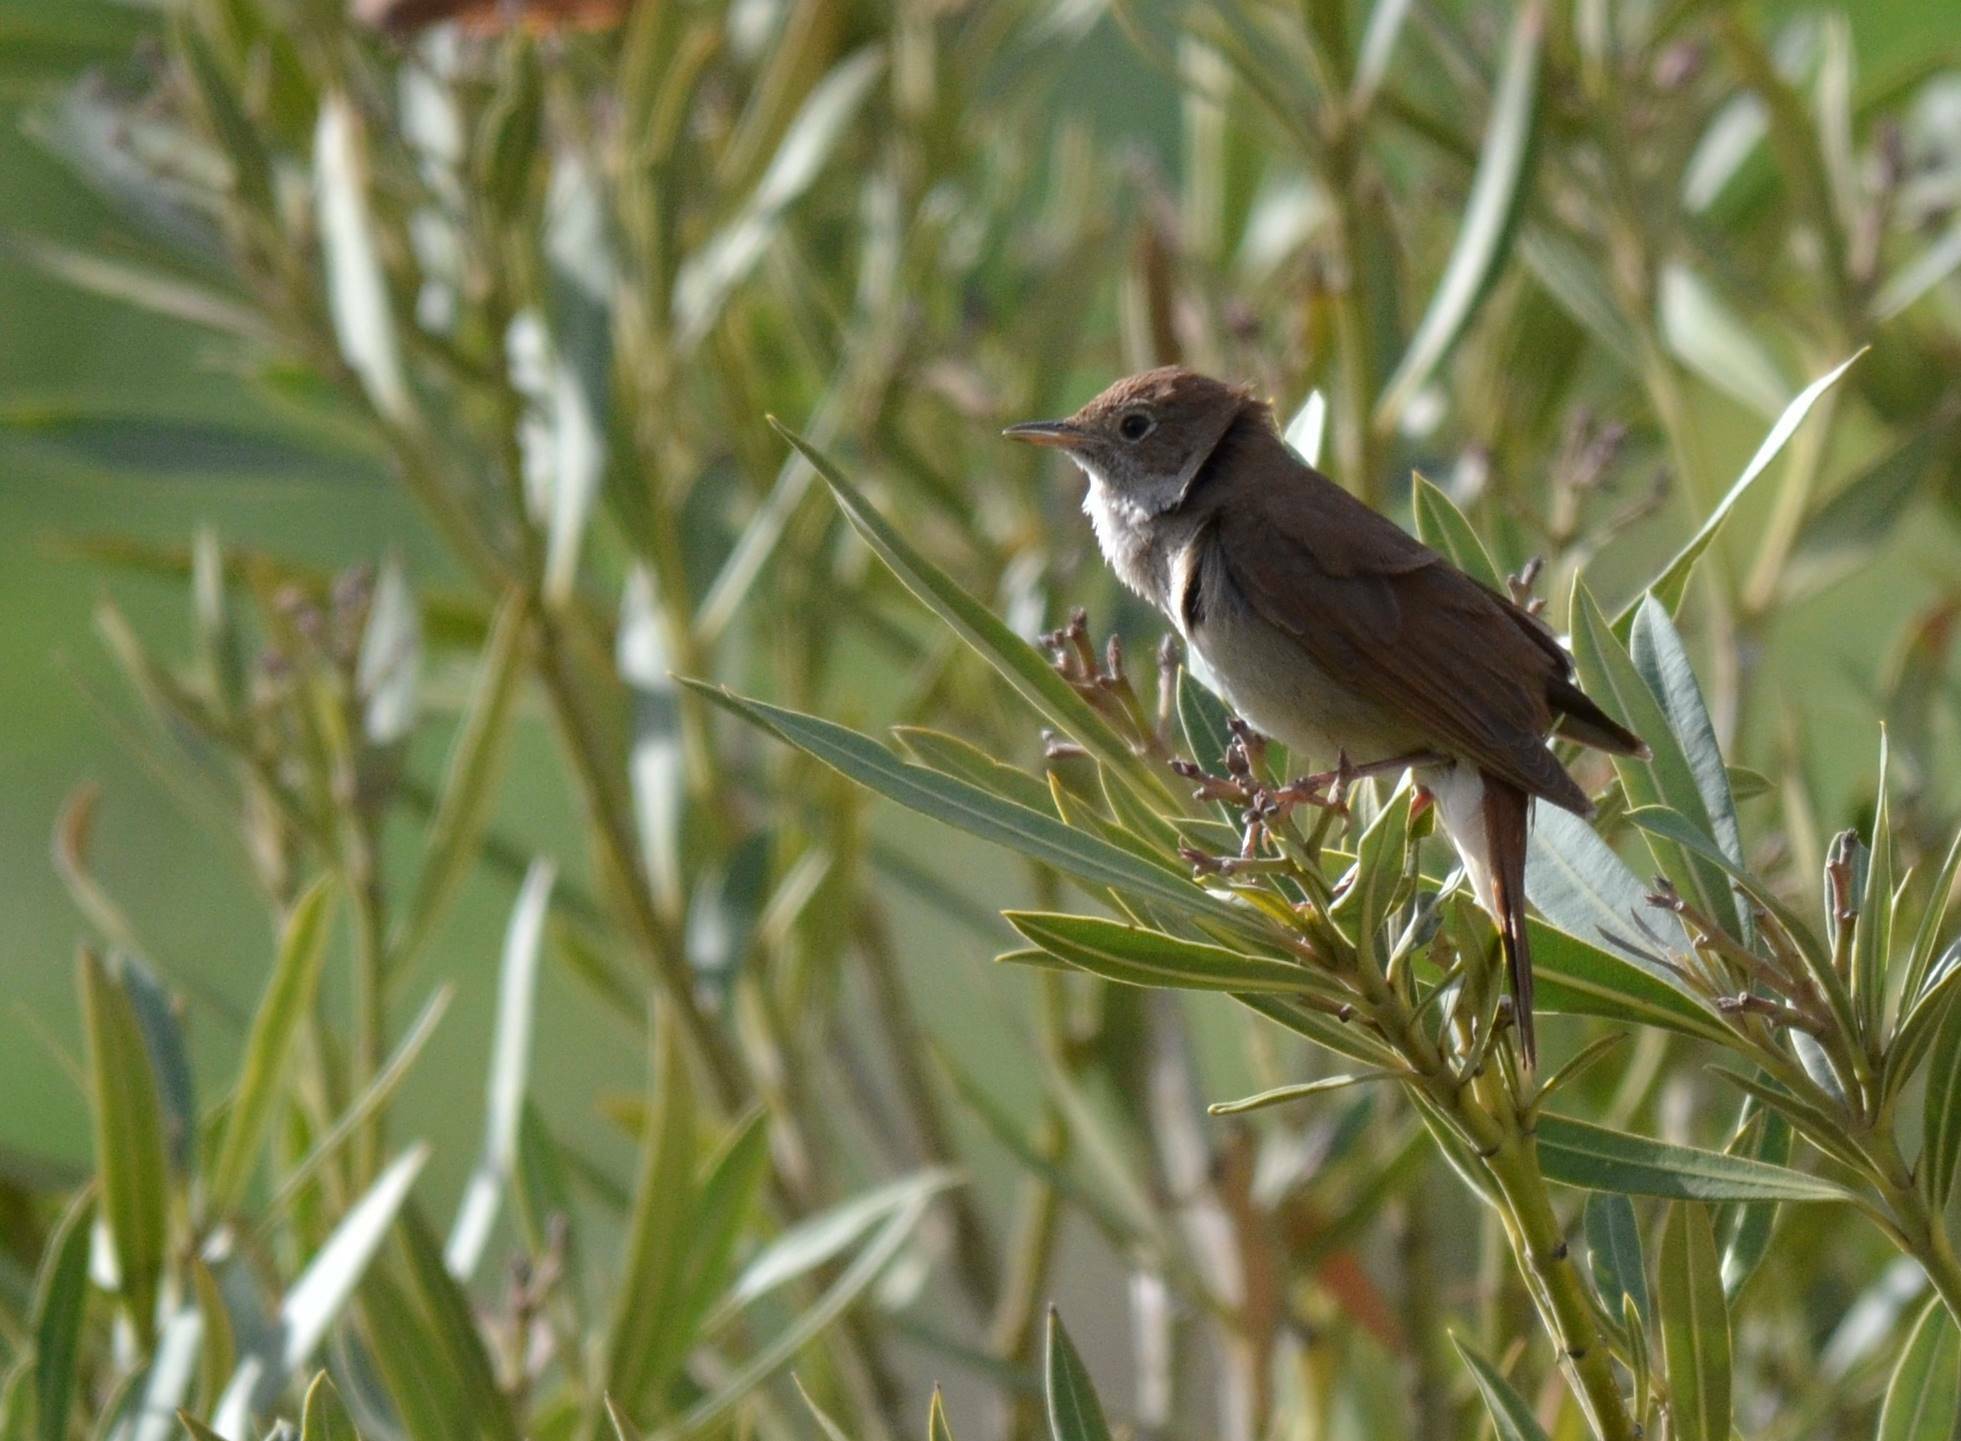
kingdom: Animalia
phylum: Chordata
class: Aves
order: Passeriformes
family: Muscicapidae
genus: Luscinia
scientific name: Luscinia megarhynchos
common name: Common nightingale
